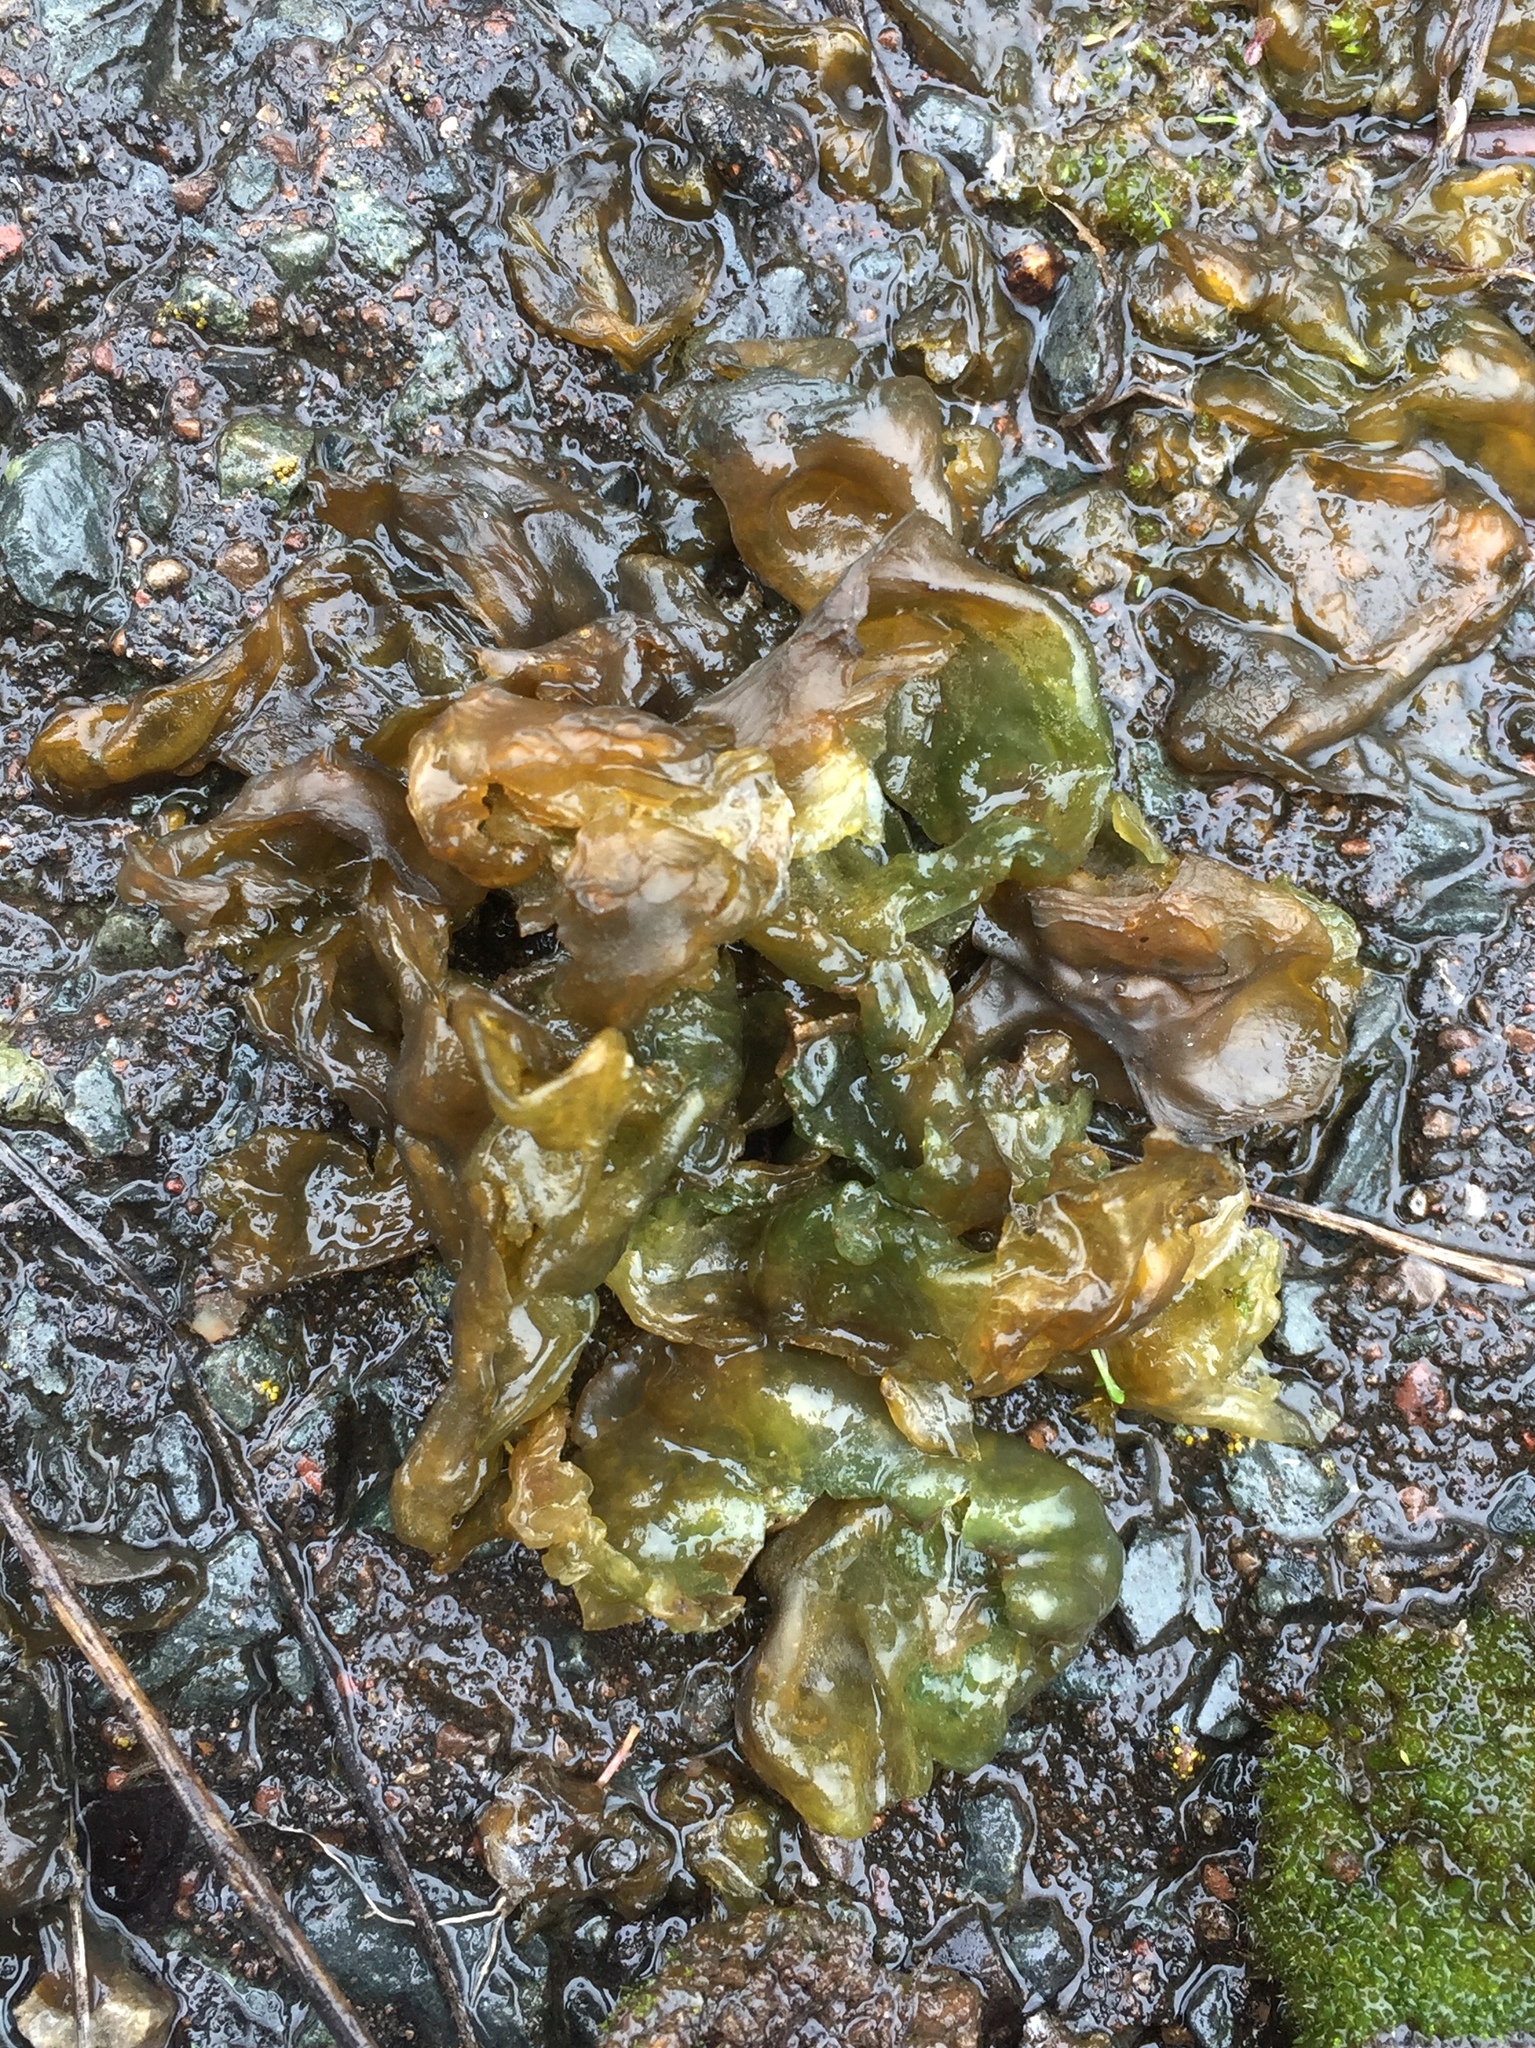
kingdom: Bacteria
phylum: Cyanobacteria
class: Cyanobacteriia
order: Cyanobacteriales
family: Nostocaceae
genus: Nostoc
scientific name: Nostoc commune
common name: Star jelly
